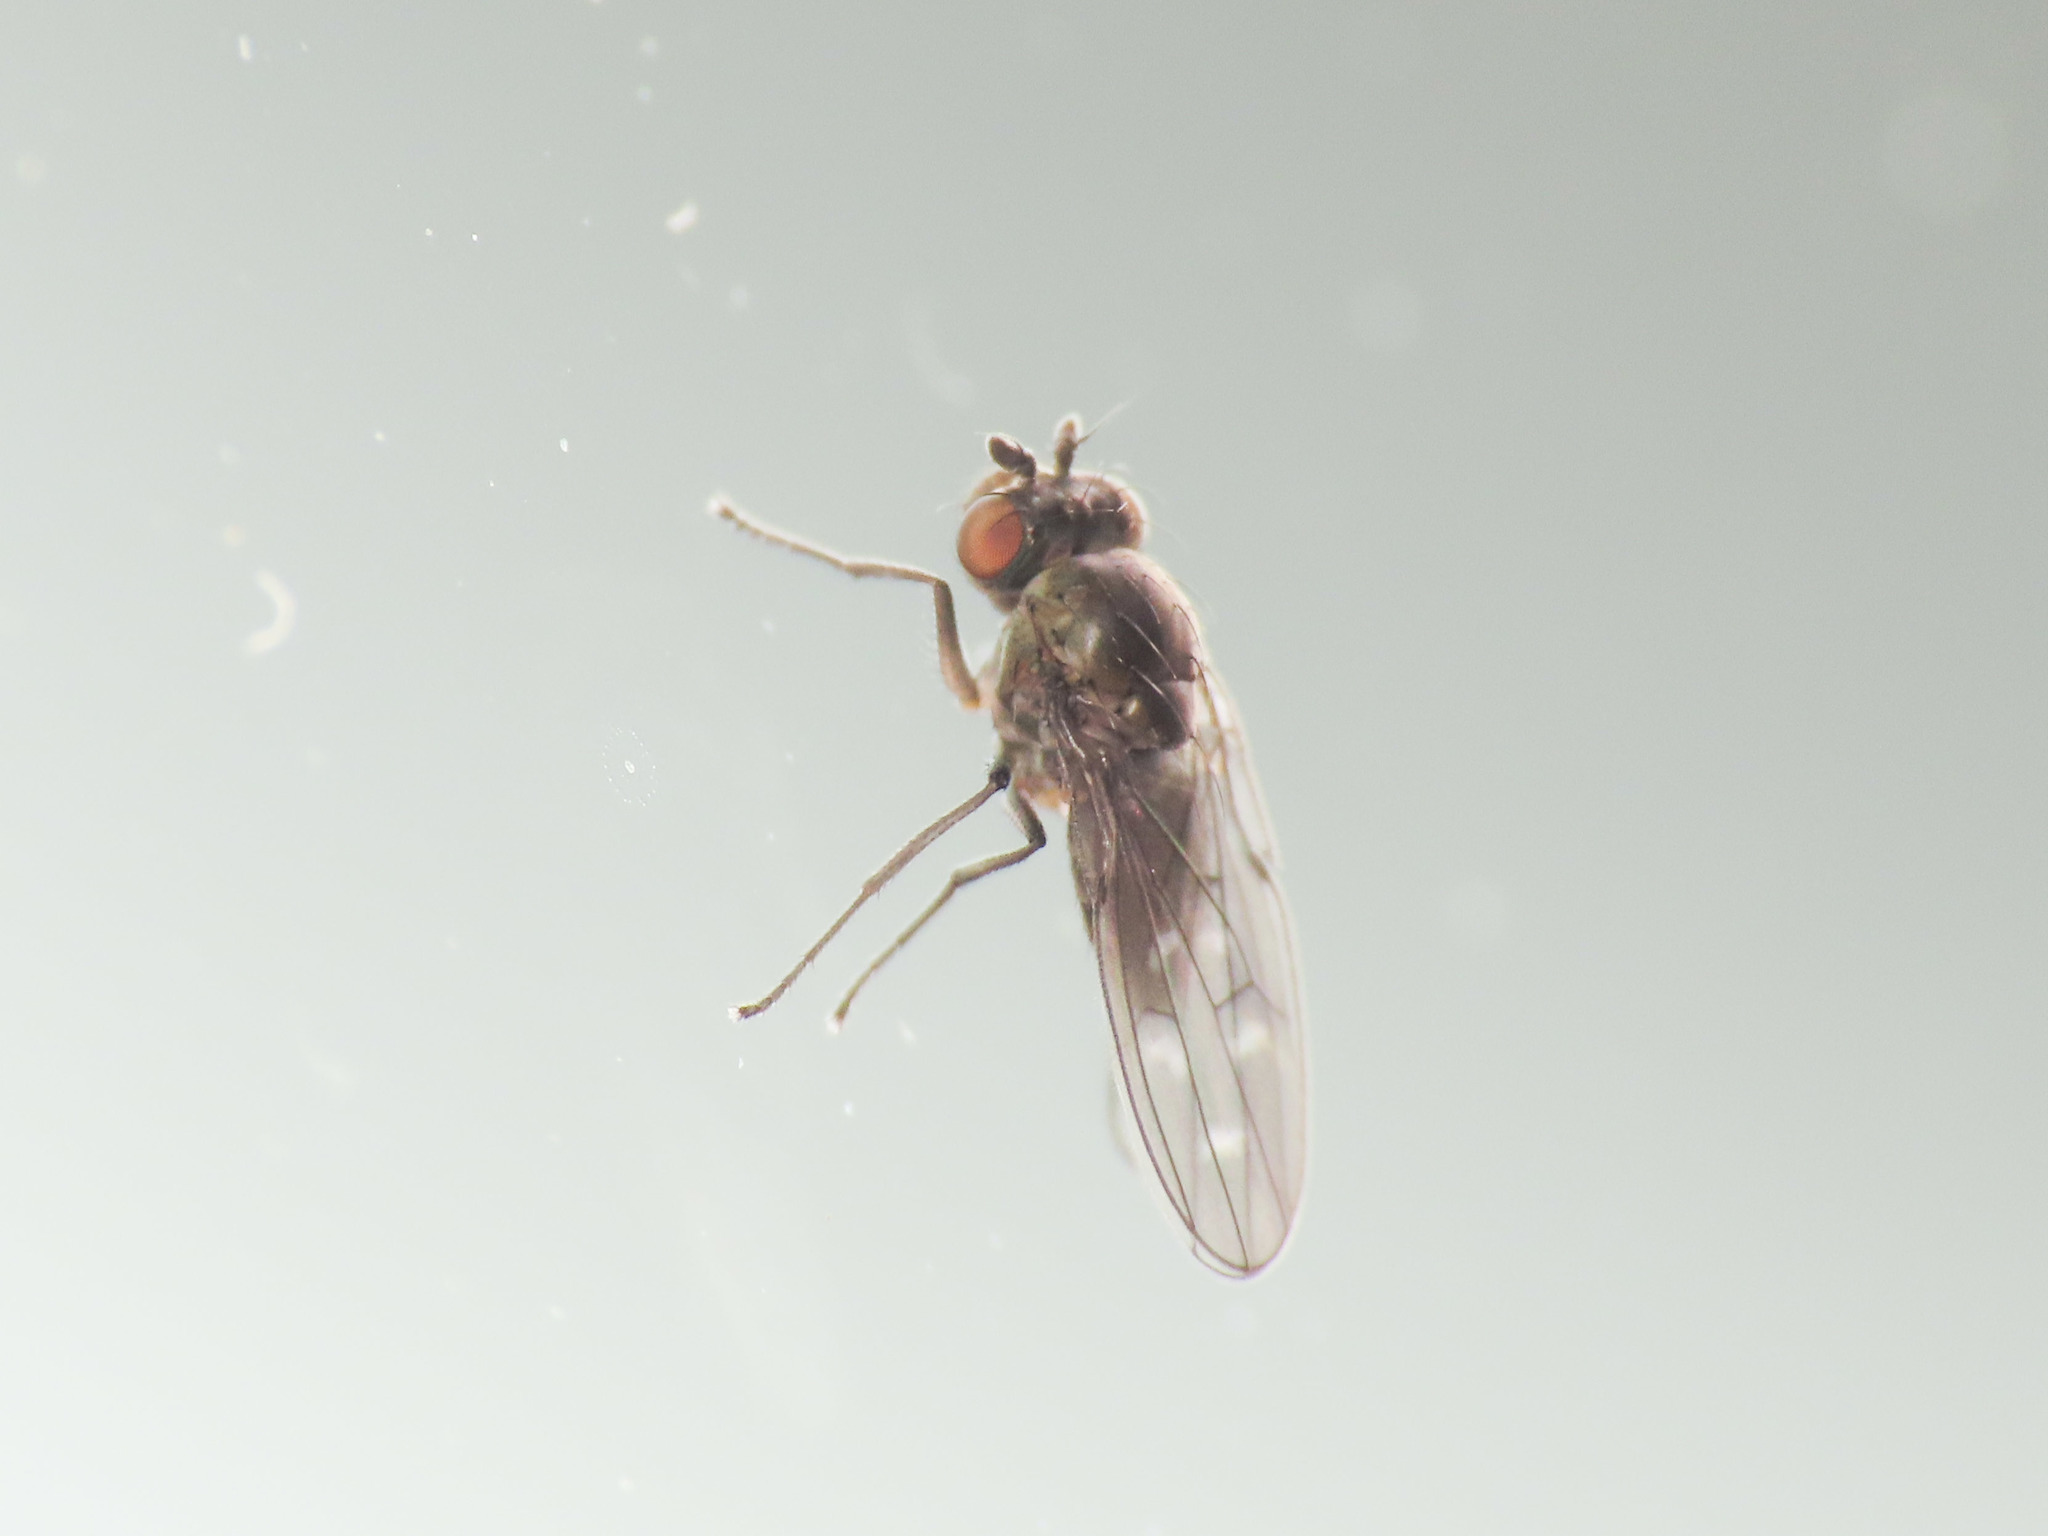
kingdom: Animalia
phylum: Arthropoda
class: Insecta
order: Diptera
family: Ephydridae
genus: Scatella
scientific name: Scatella tenuicosta
